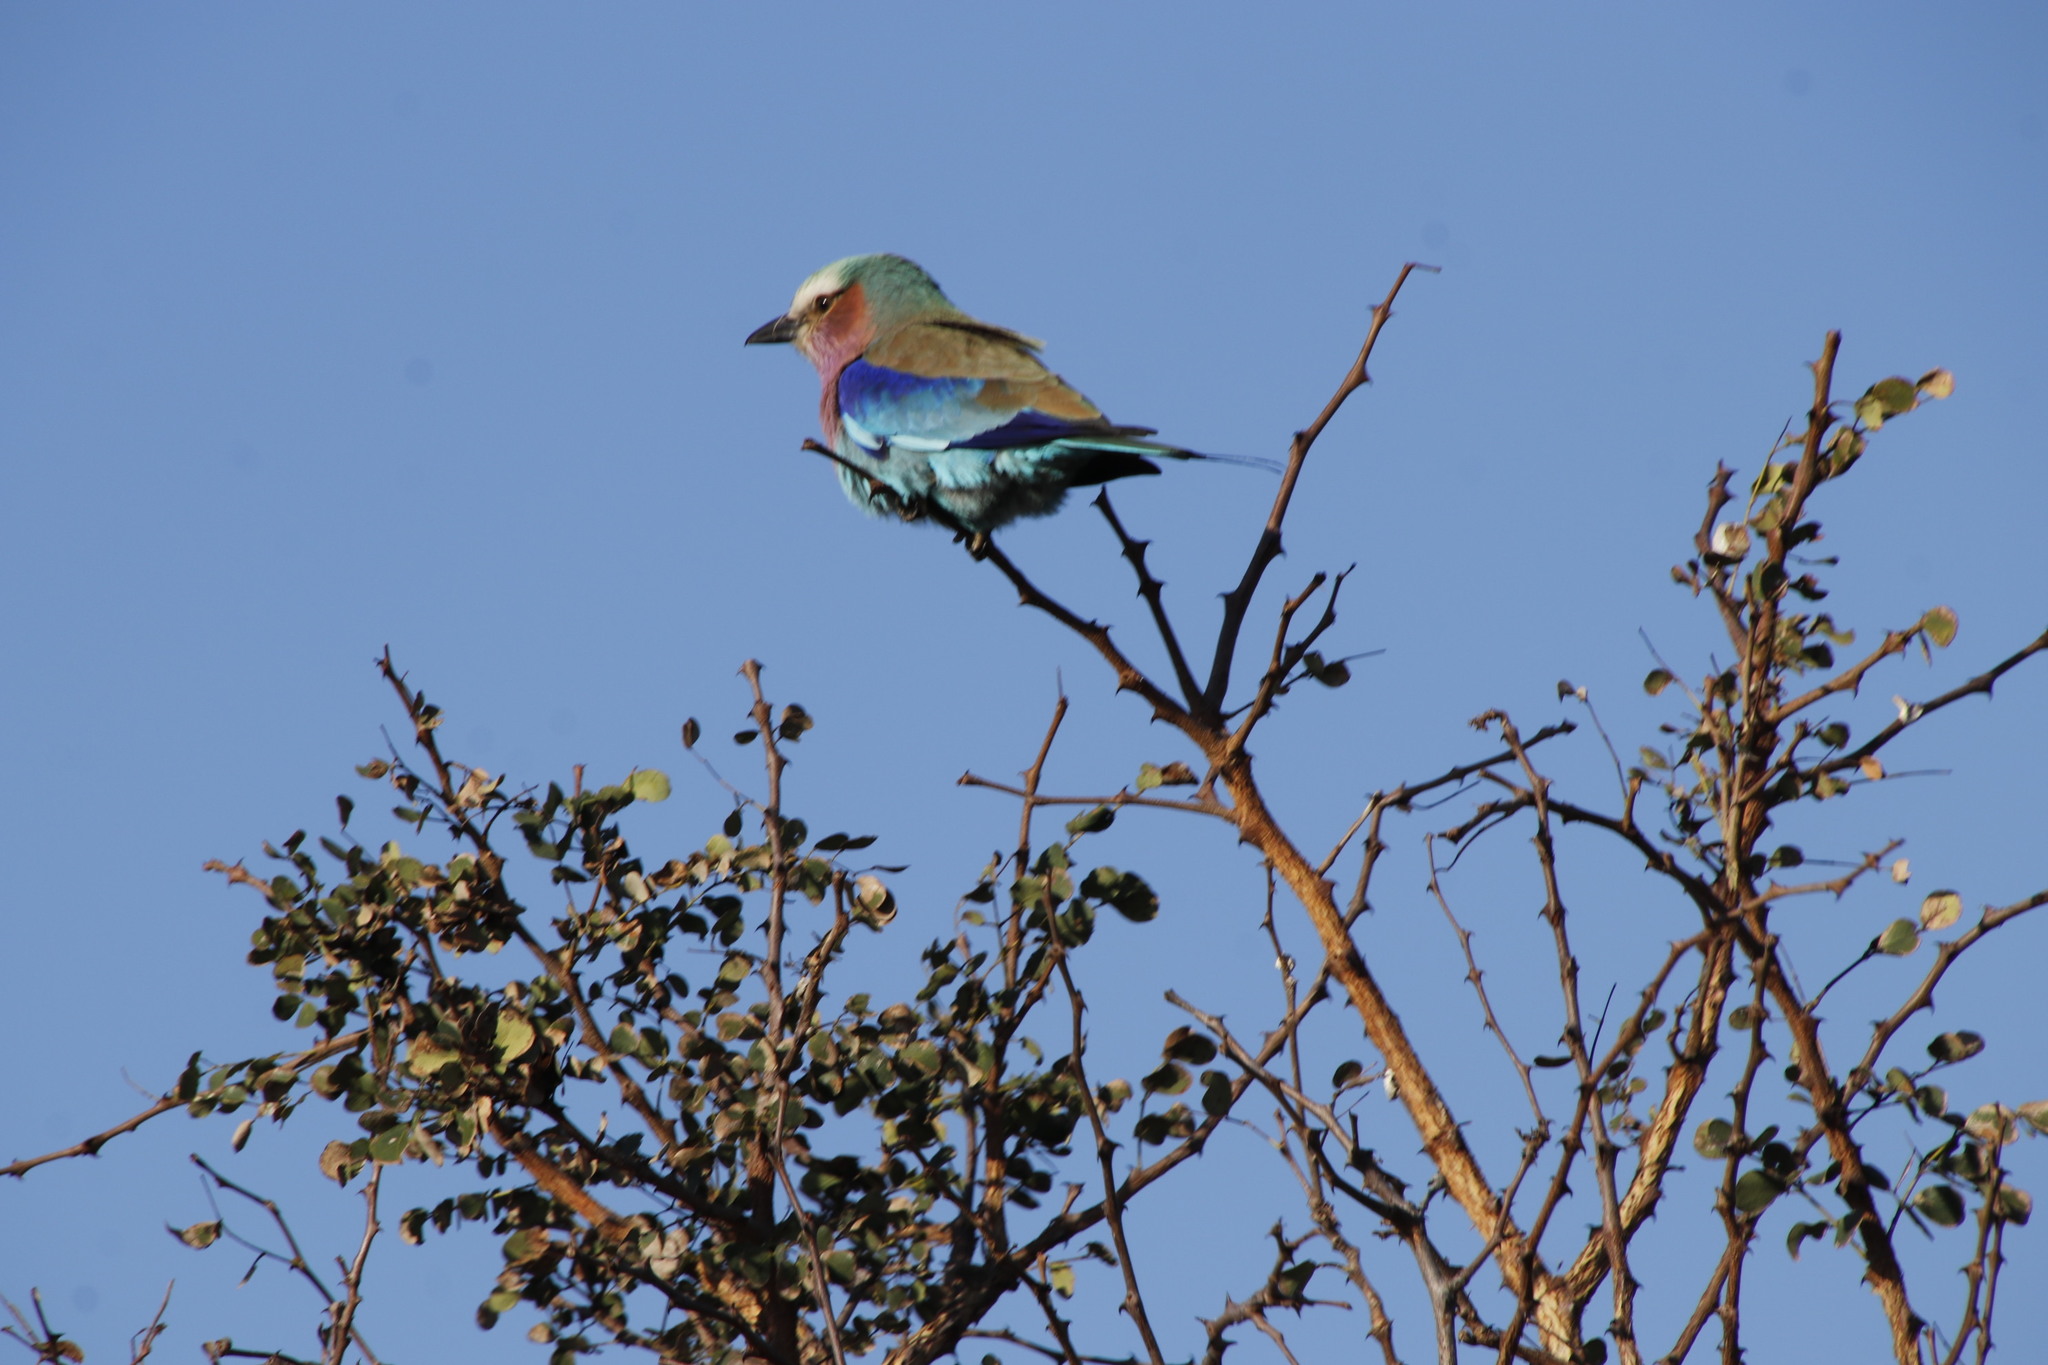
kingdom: Plantae
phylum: Tracheophyta
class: Magnoliopsida
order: Fabales
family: Fabaceae
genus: Senegalia
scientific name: Senegalia nigrescens
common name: Knobthorn
